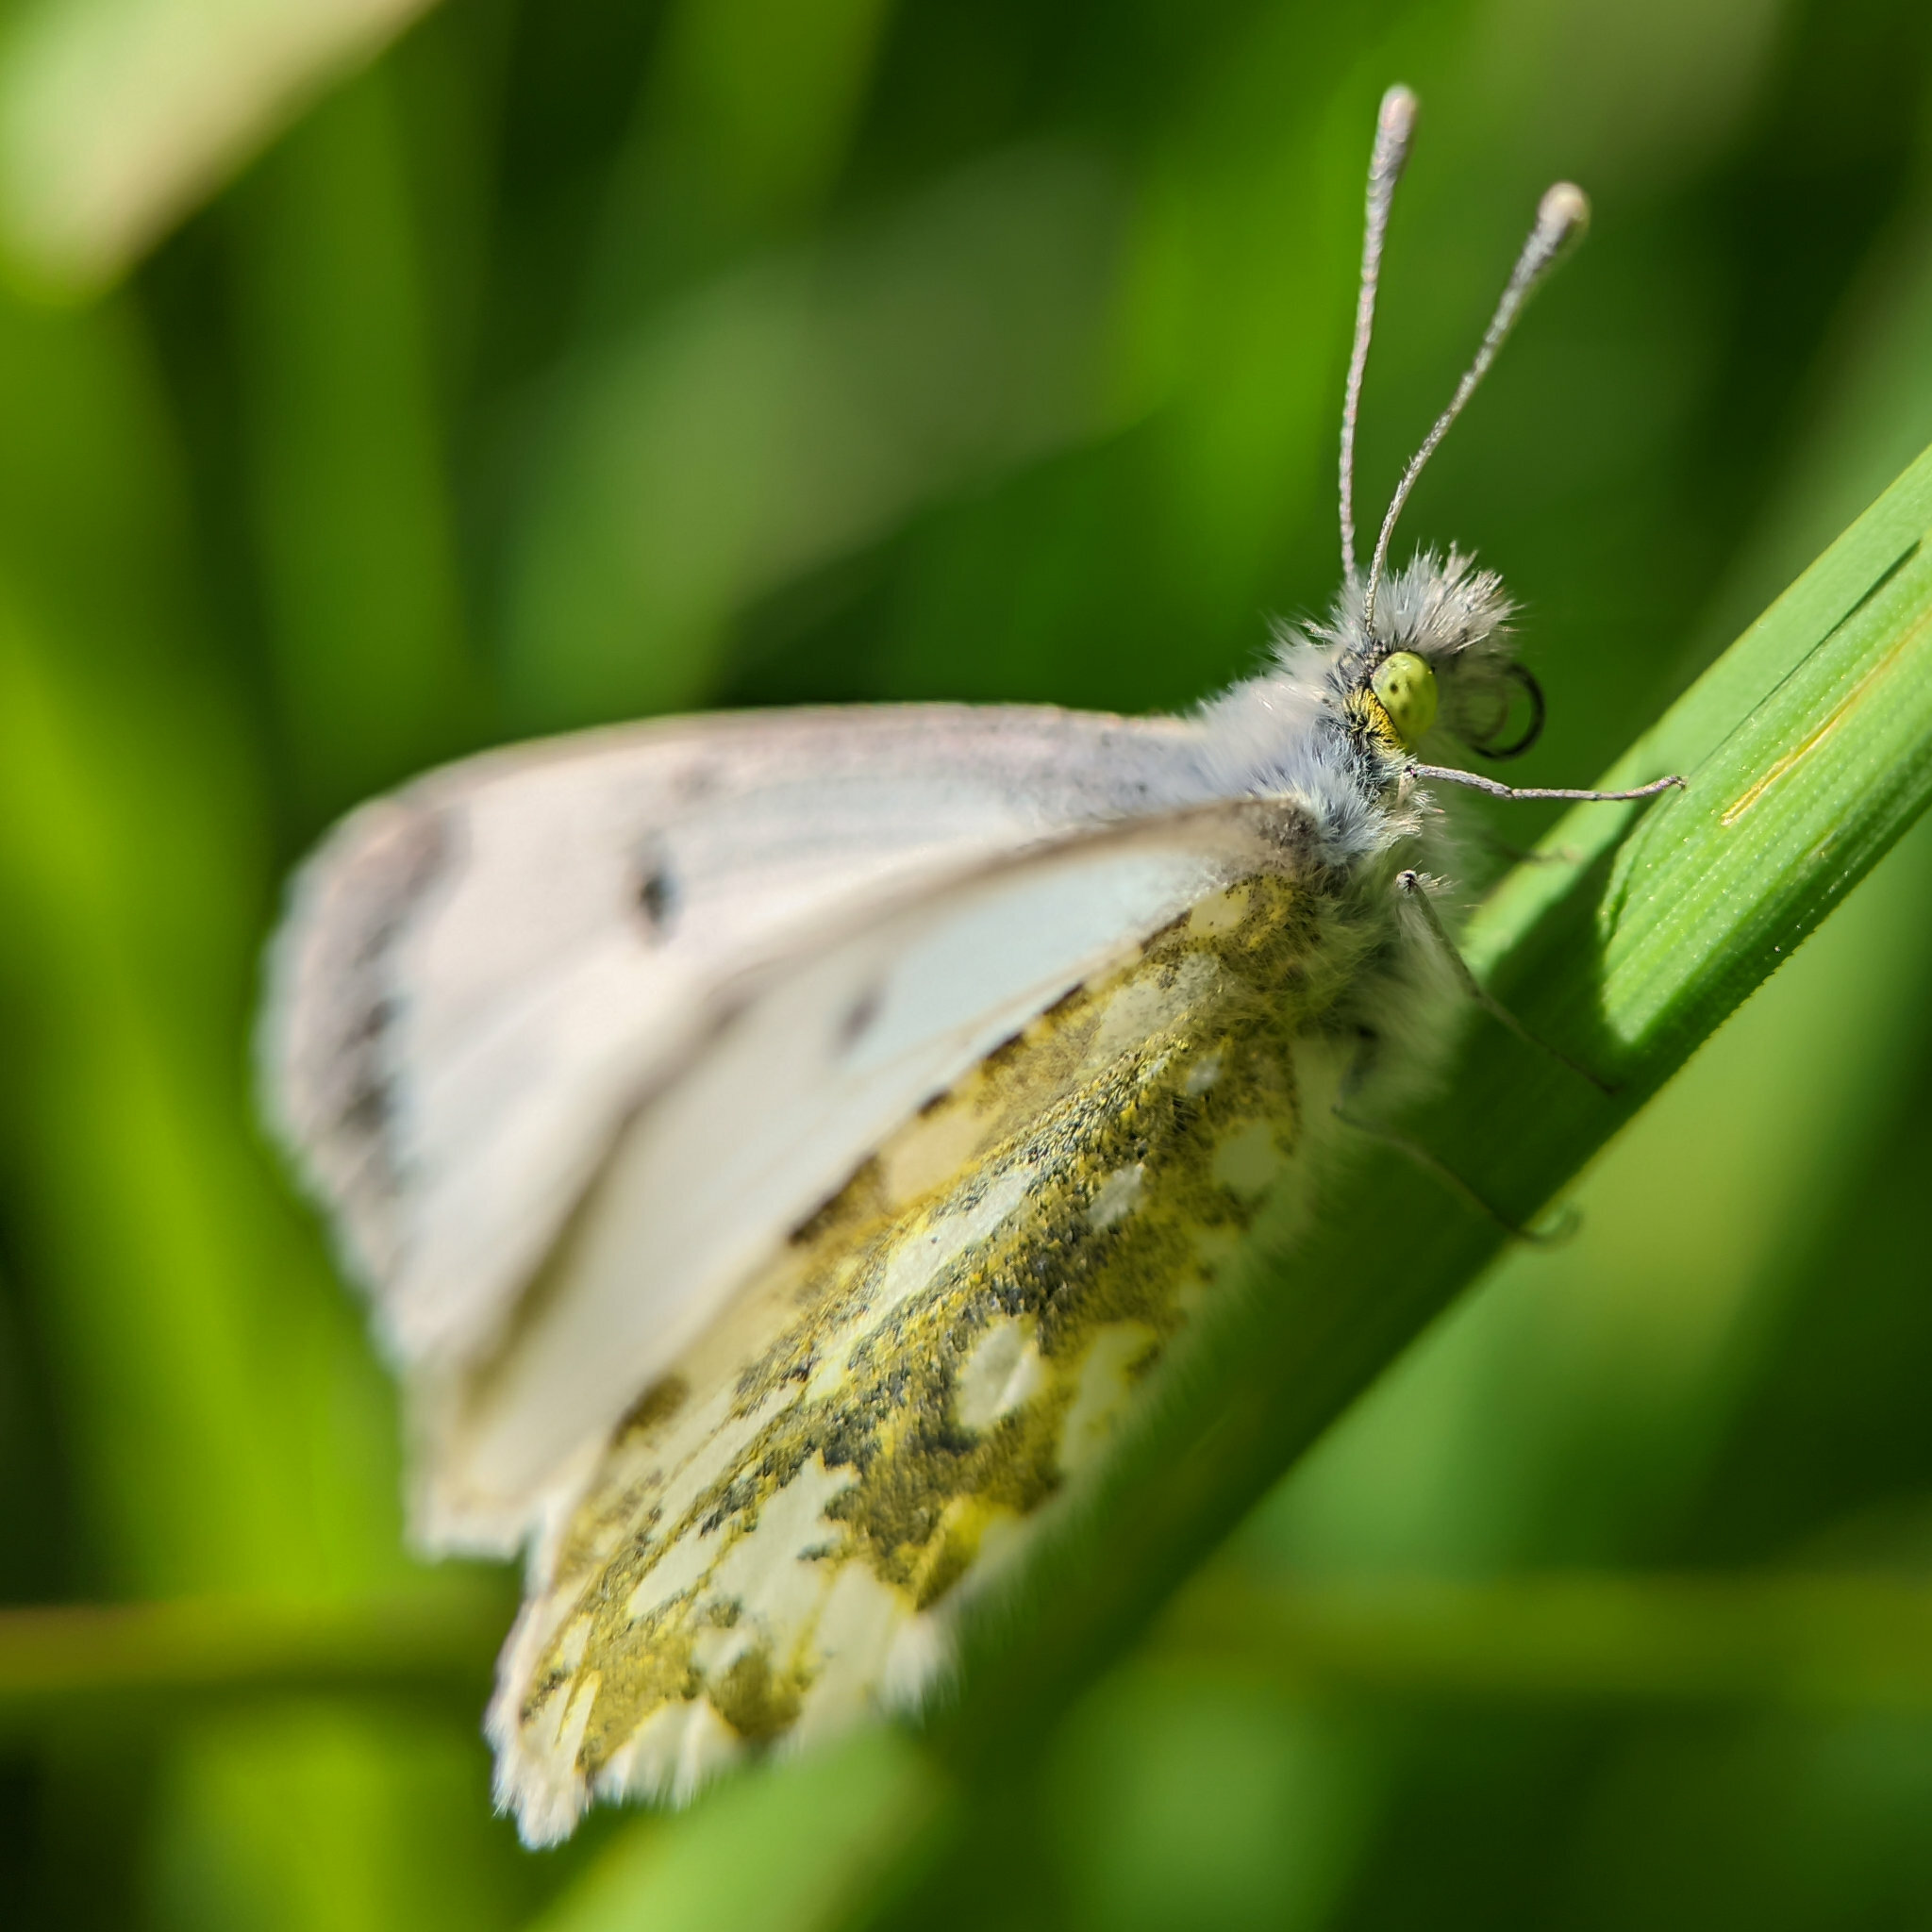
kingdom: Animalia
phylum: Arthropoda
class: Insecta
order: Lepidoptera
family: Pieridae
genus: Anthocharis
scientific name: Anthocharis cardamines
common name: Orange-tip
